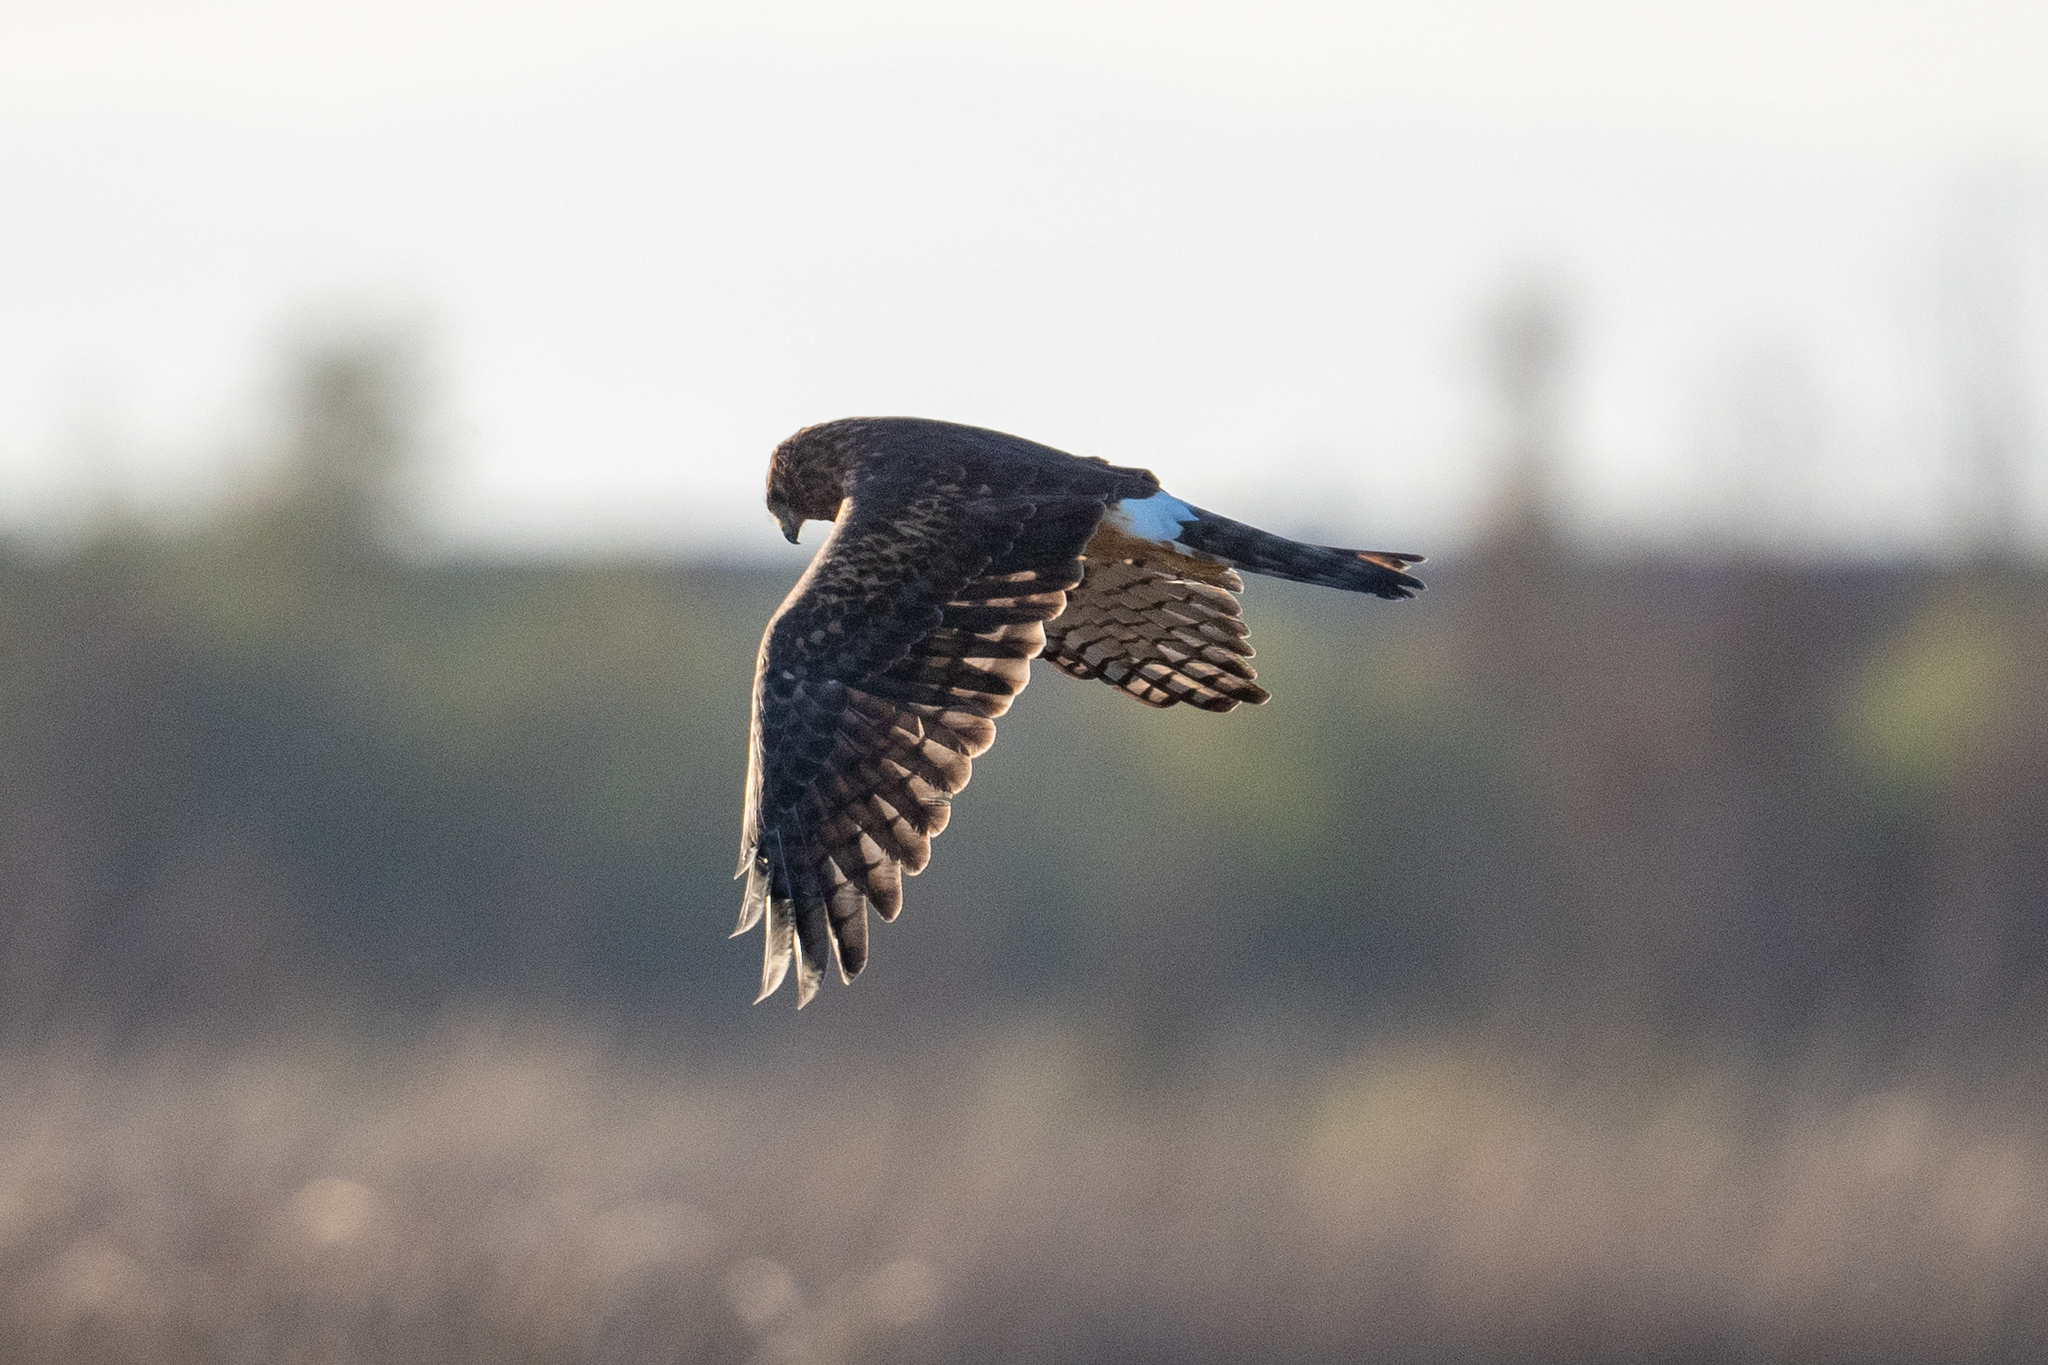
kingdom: Animalia
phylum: Chordata
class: Aves
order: Accipitriformes
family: Accipitridae
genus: Circus
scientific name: Circus cyaneus
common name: Hen harrier
